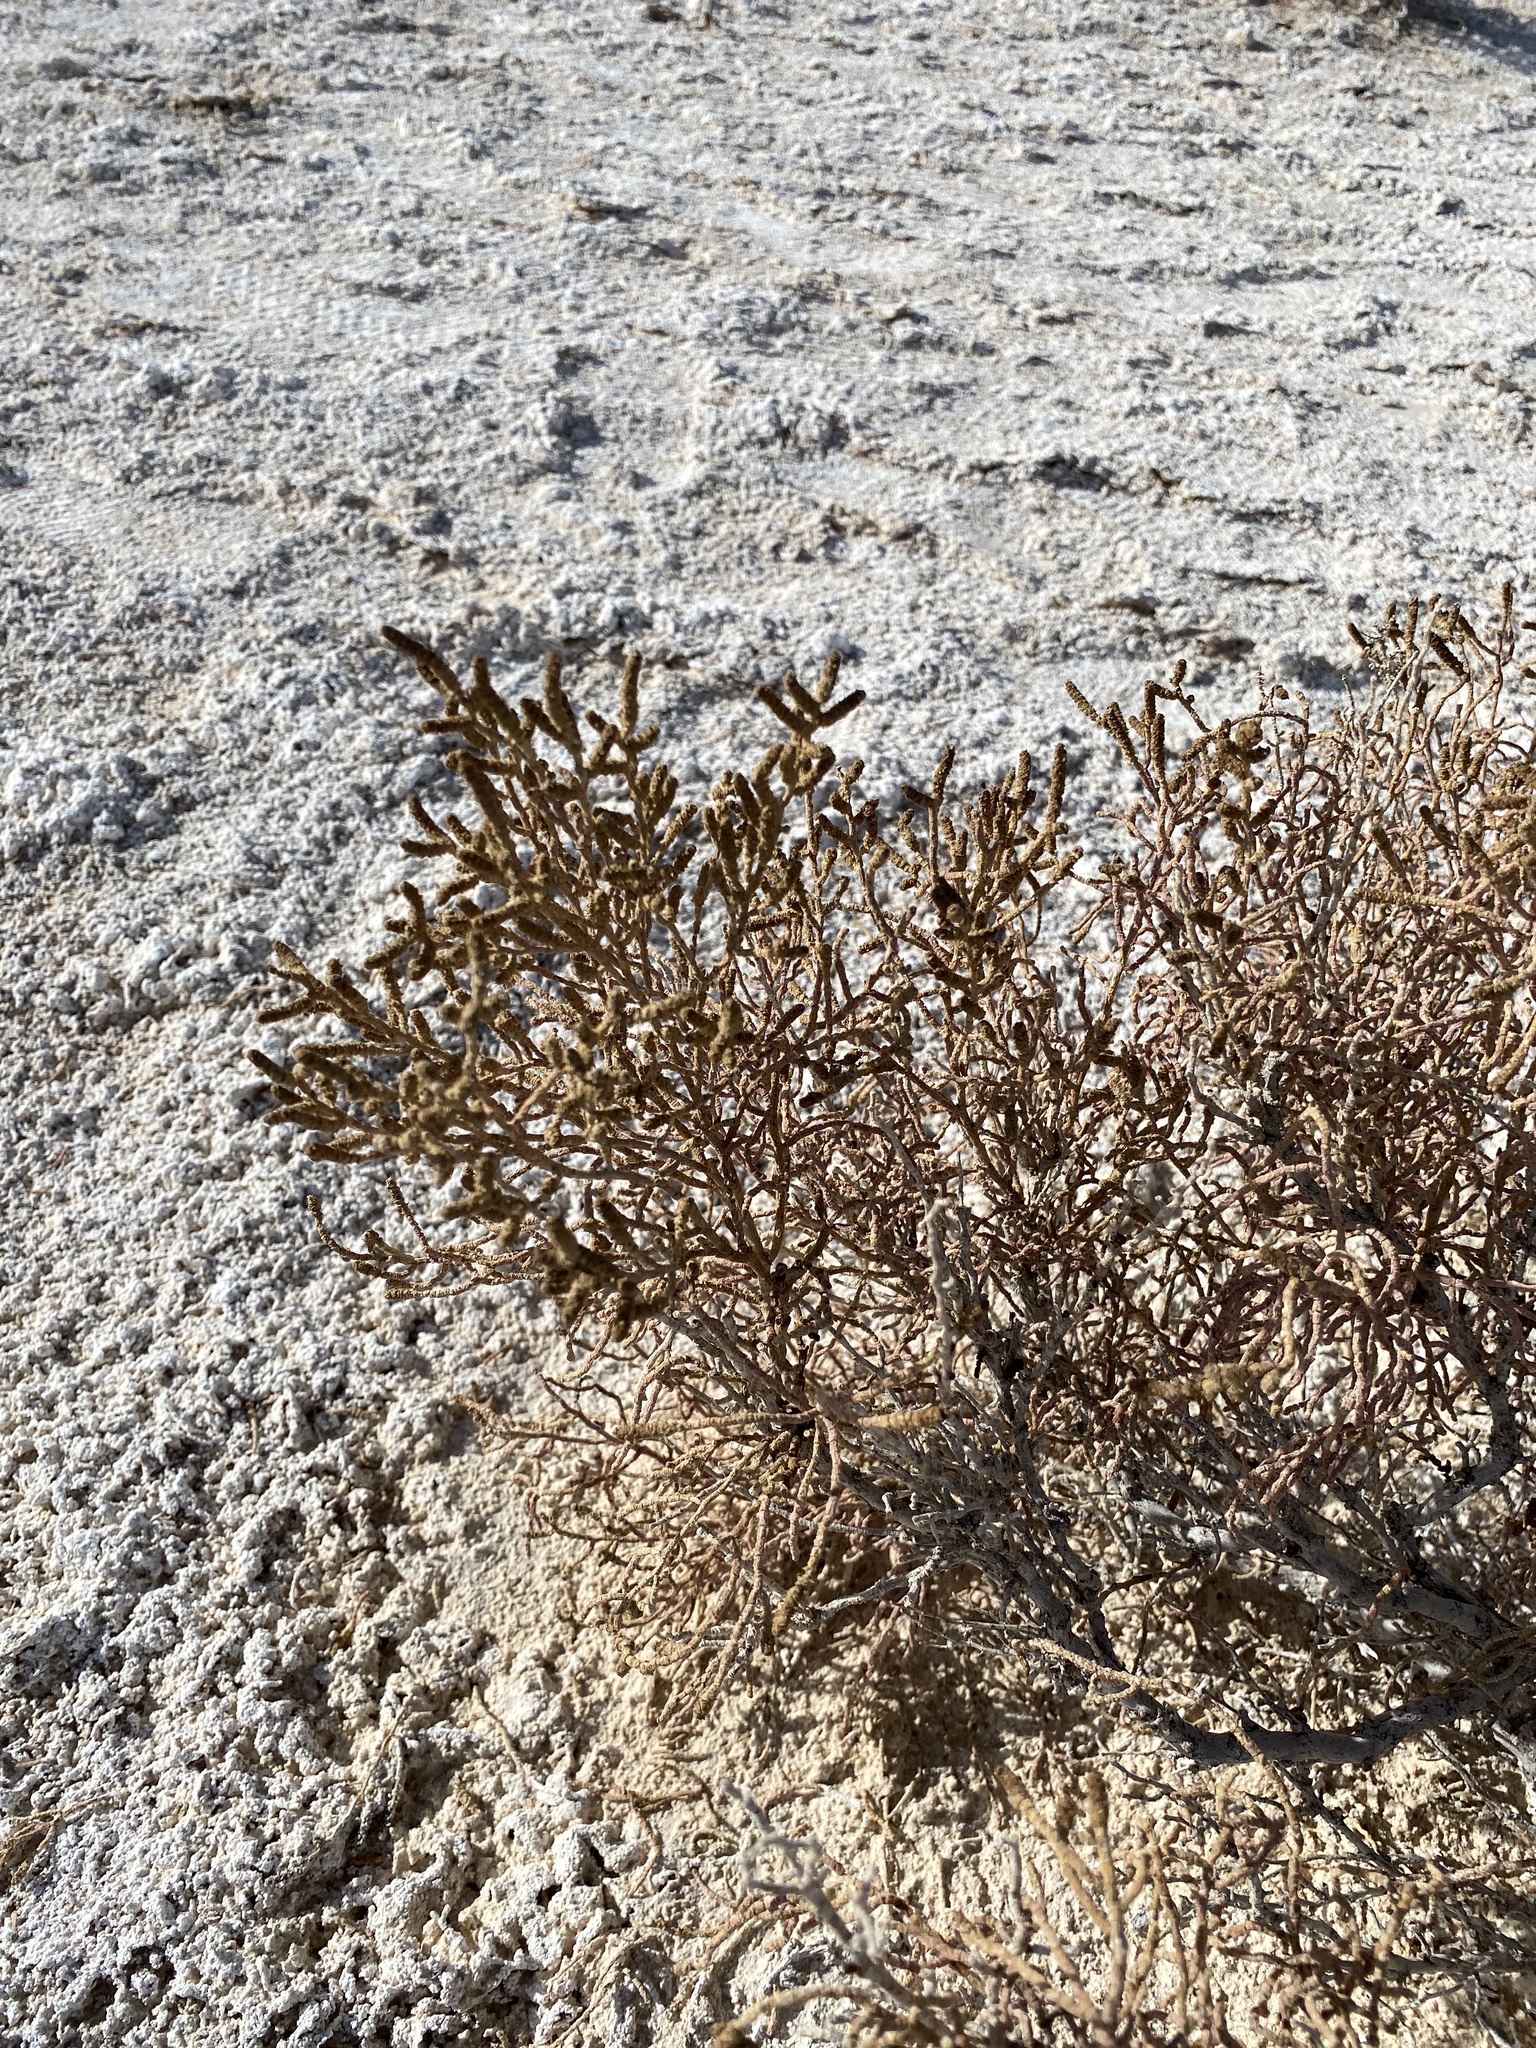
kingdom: Plantae
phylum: Tracheophyta
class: Magnoliopsida
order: Caryophyllales
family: Amaranthaceae
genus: Allenrolfea
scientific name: Allenrolfea occidentalis
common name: Iodine-bush
